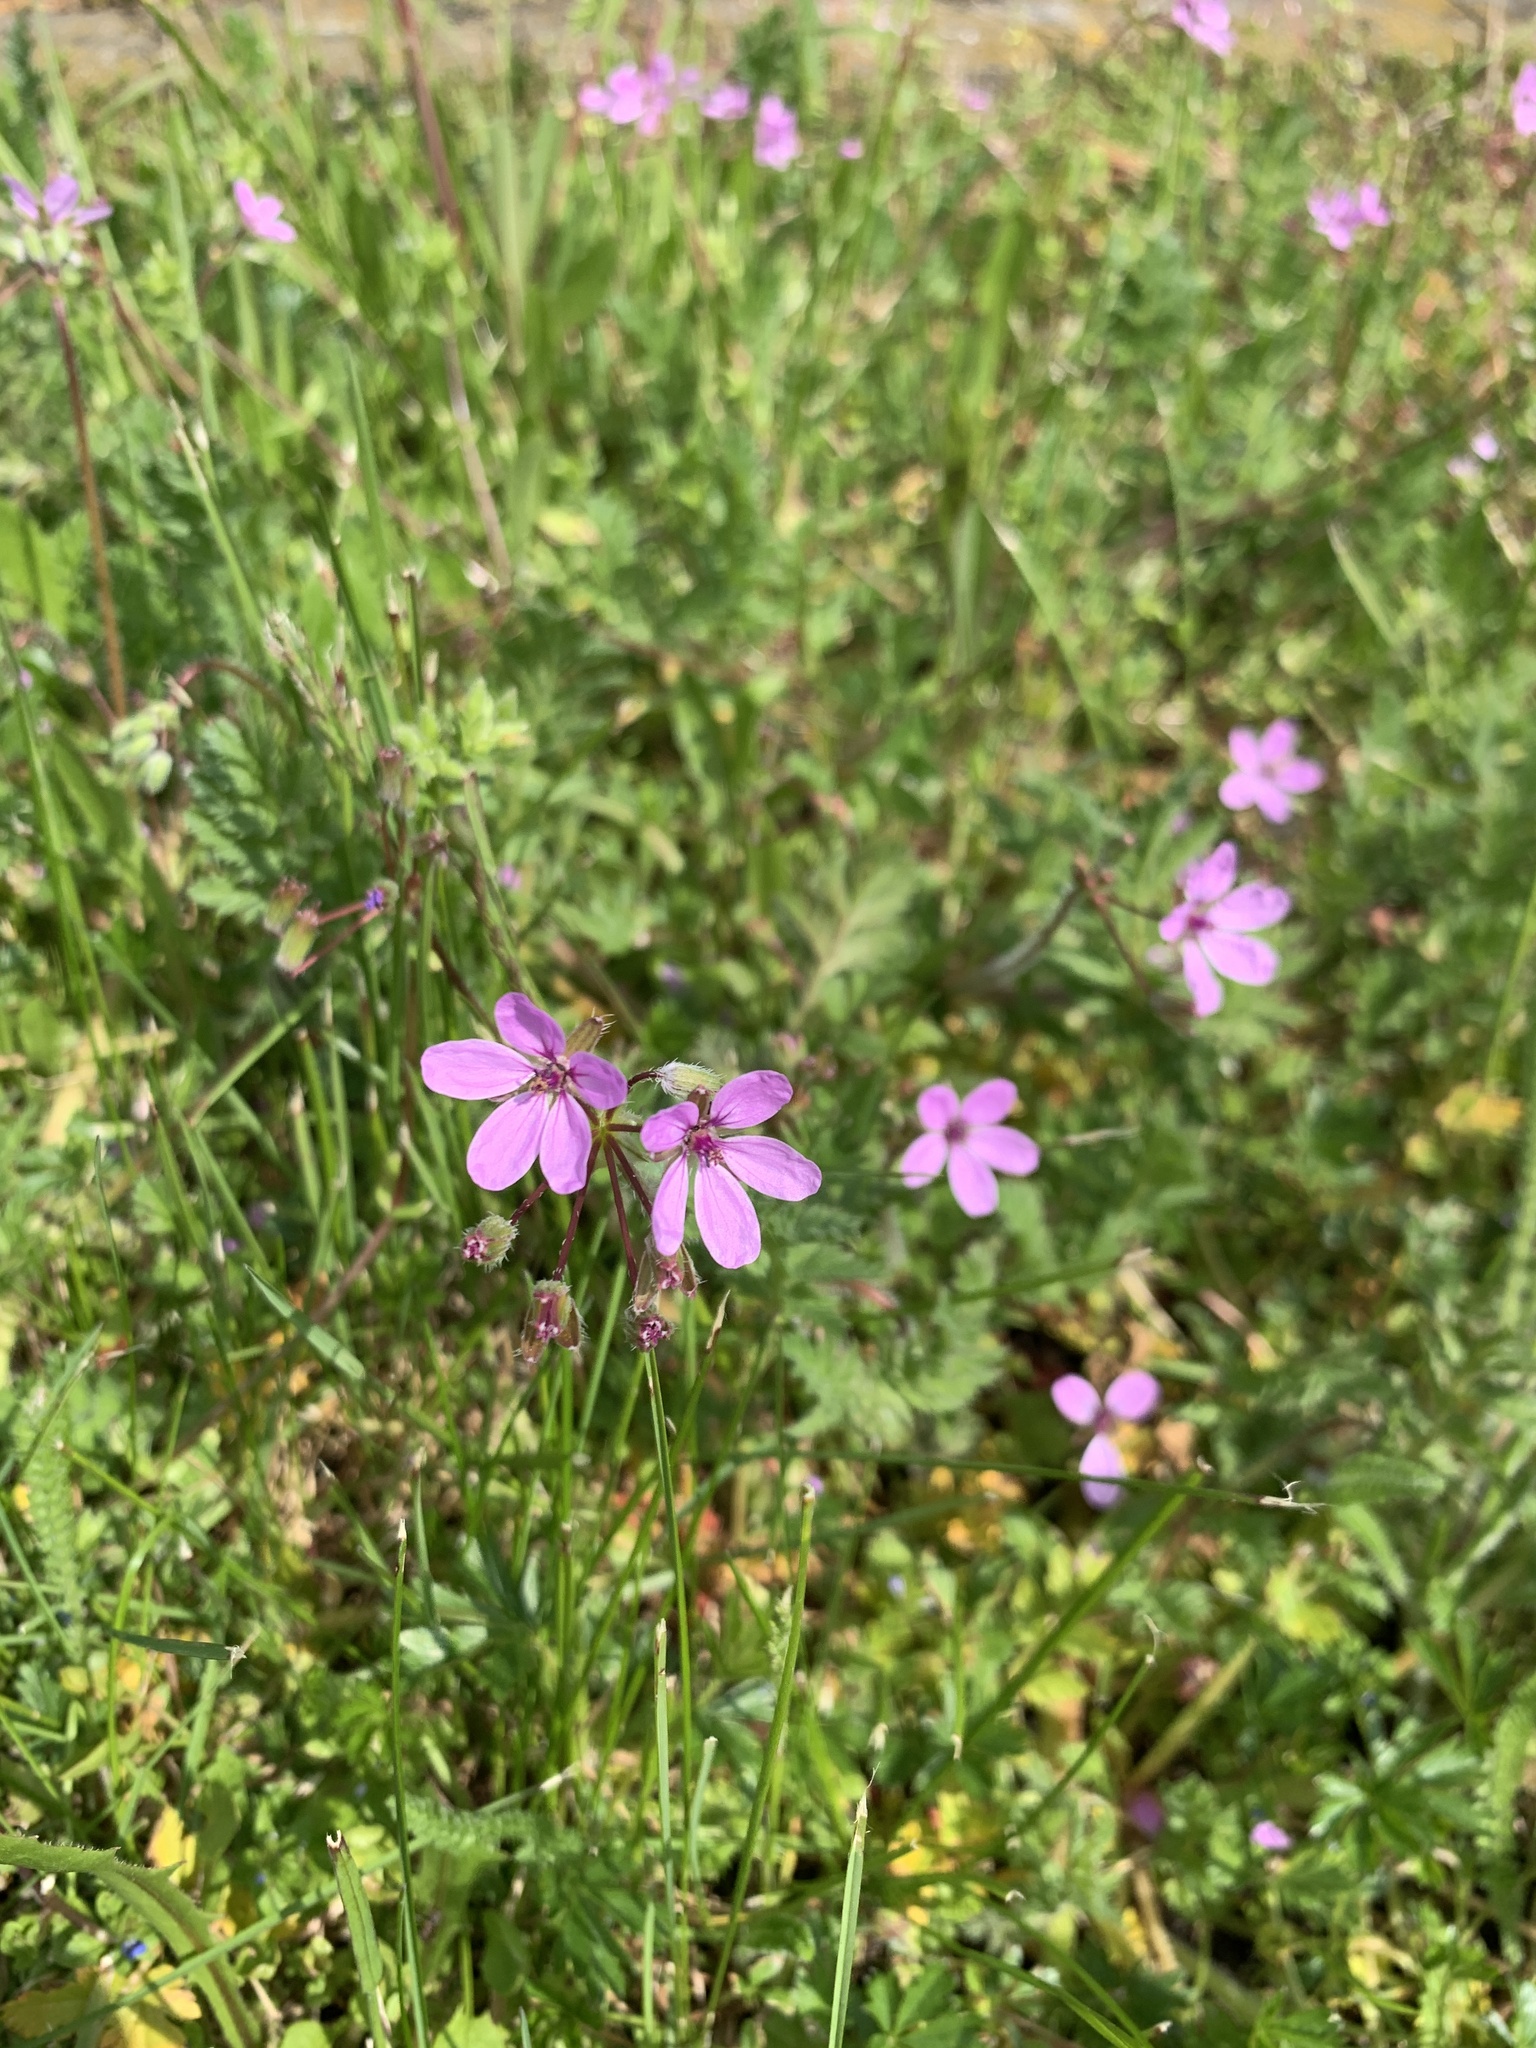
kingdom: Plantae
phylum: Tracheophyta
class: Magnoliopsida
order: Geraniales
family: Geraniaceae
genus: Erodium
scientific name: Erodium cicutarium
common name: Common stork's-bill
